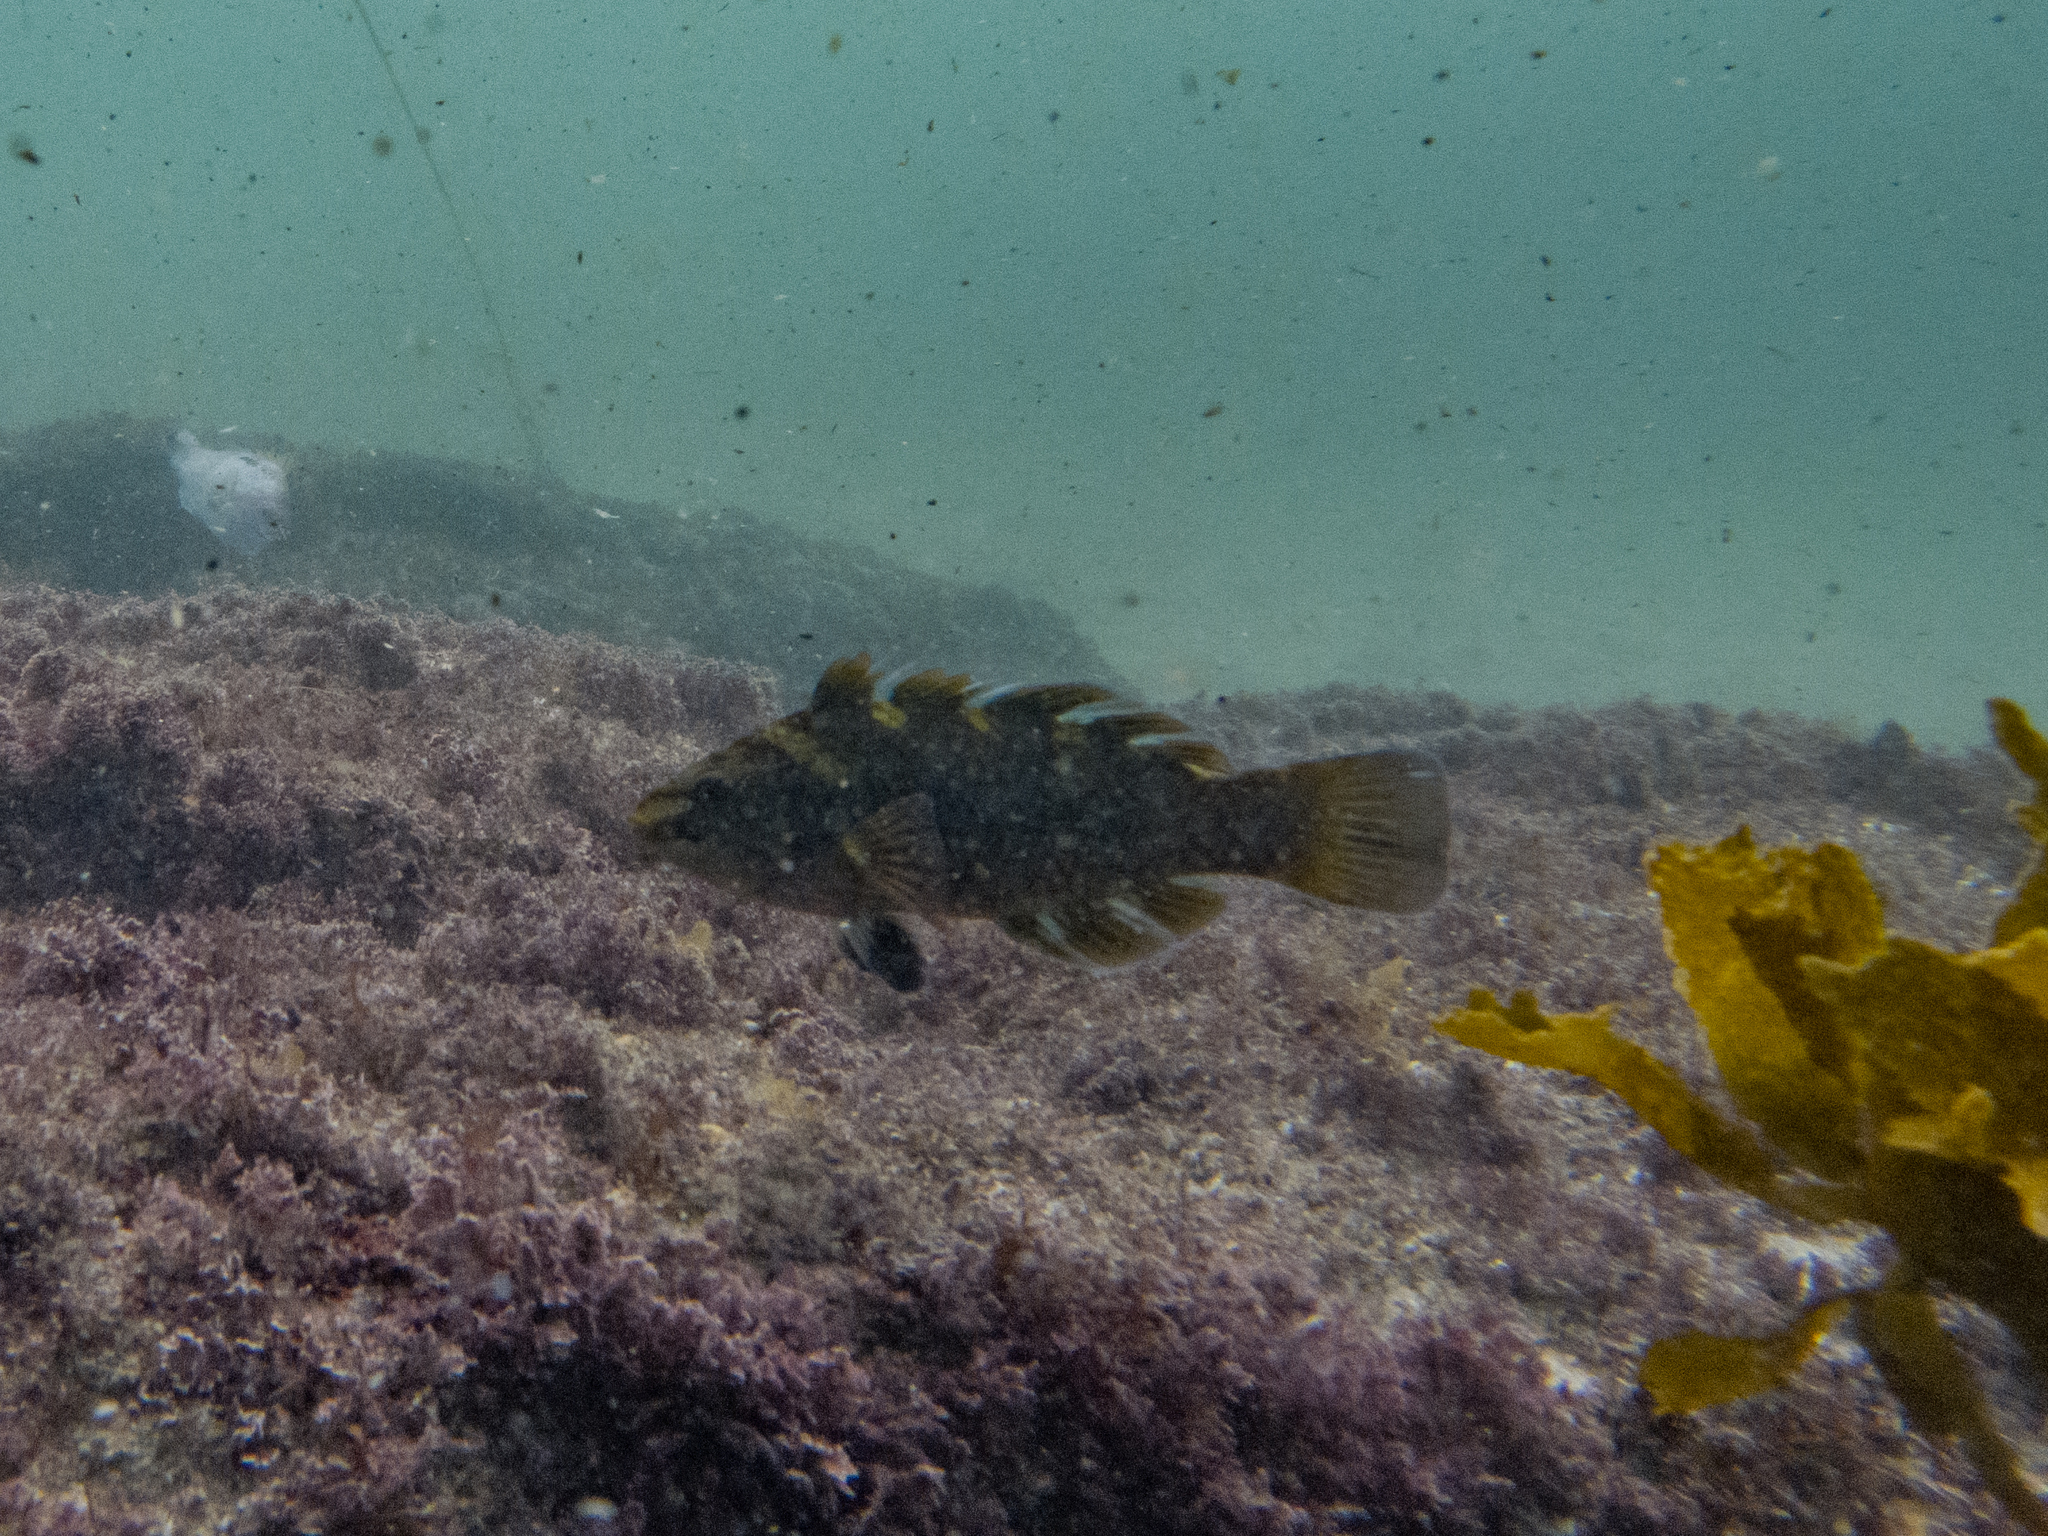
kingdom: Animalia
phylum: Chordata
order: Perciformes
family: Labridae
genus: Notolabrus
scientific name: Notolabrus fucicola
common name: Banded parrotfish
